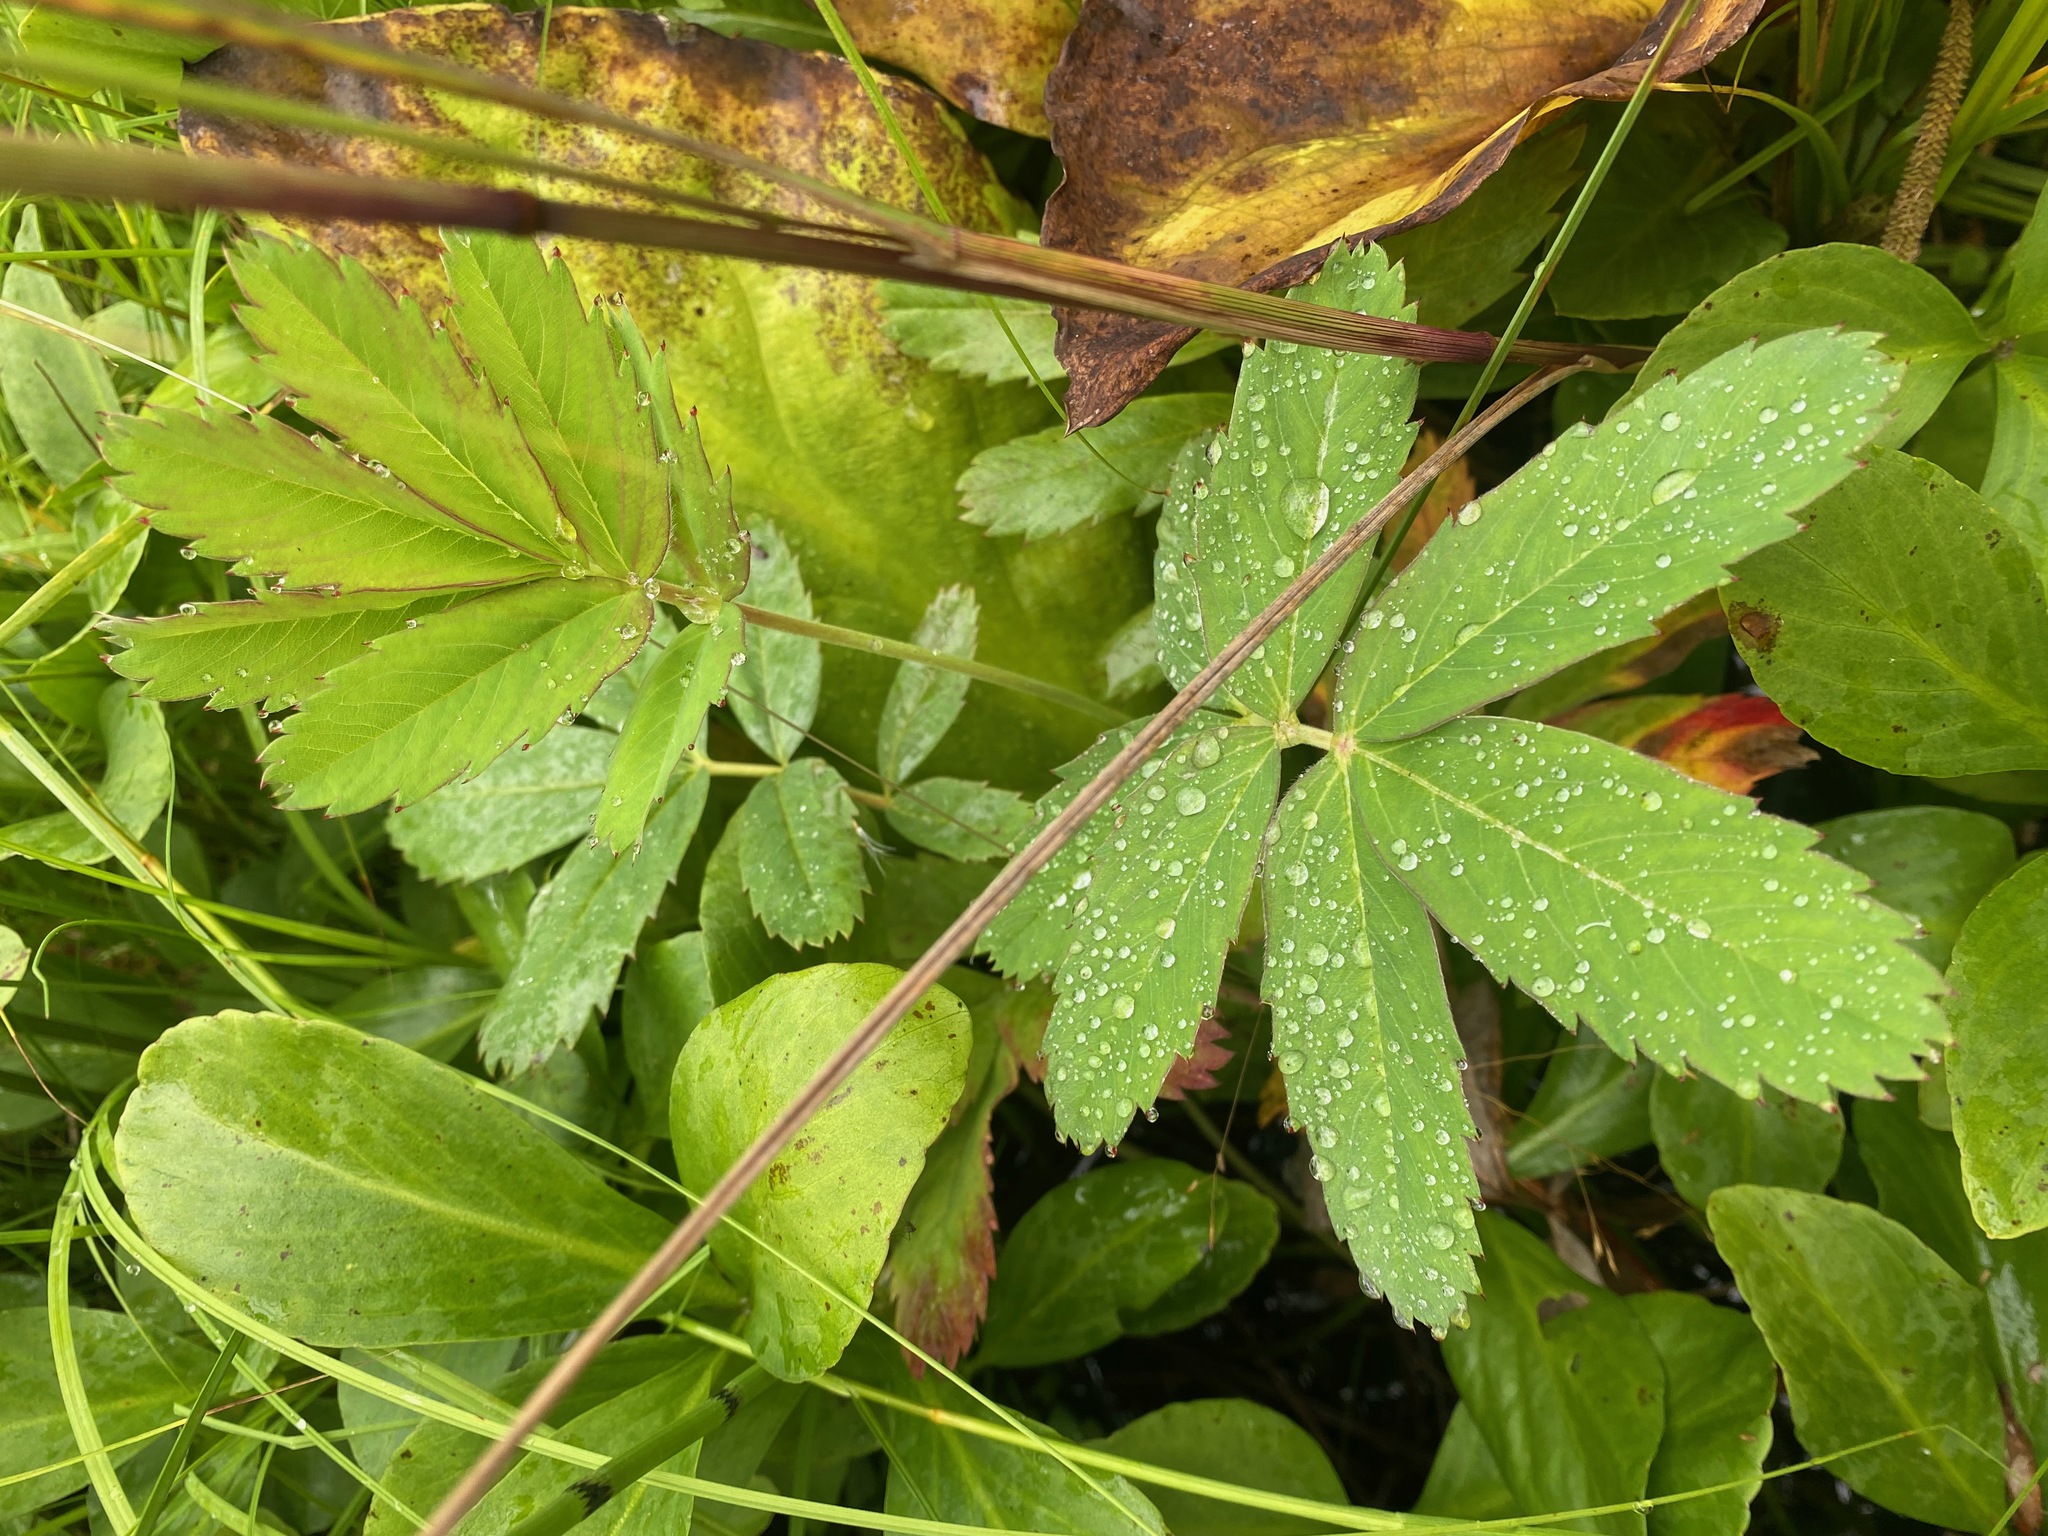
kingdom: Plantae
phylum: Tracheophyta
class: Magnoliopsida
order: Rosales
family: Rosaceae
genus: Comarum
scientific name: Comarum palustre
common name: Marsh cinquefoil
